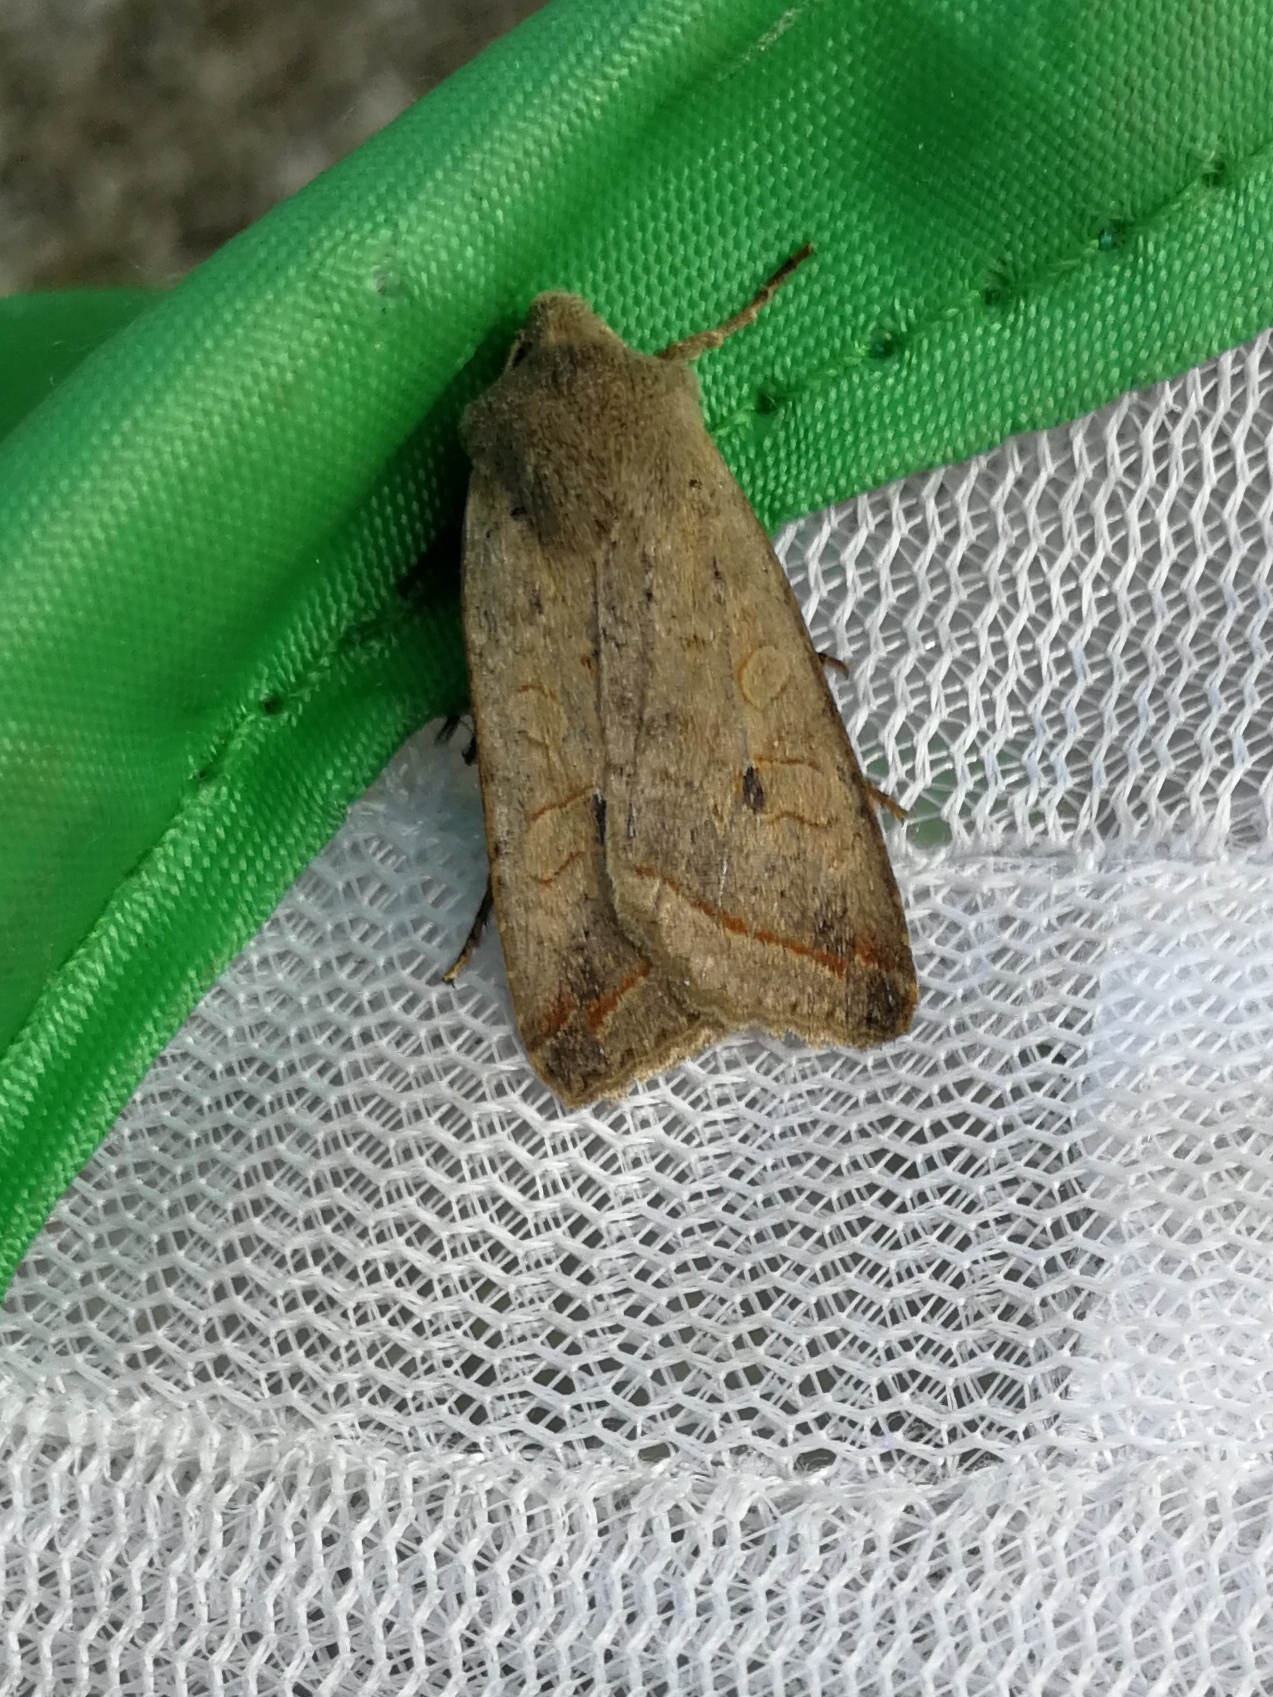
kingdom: Animalia
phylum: Arthropoda
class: Insecta
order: Lepidoptera
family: Noctuidae
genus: Agrochola
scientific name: Agrochola lota
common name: Red-line quaker
